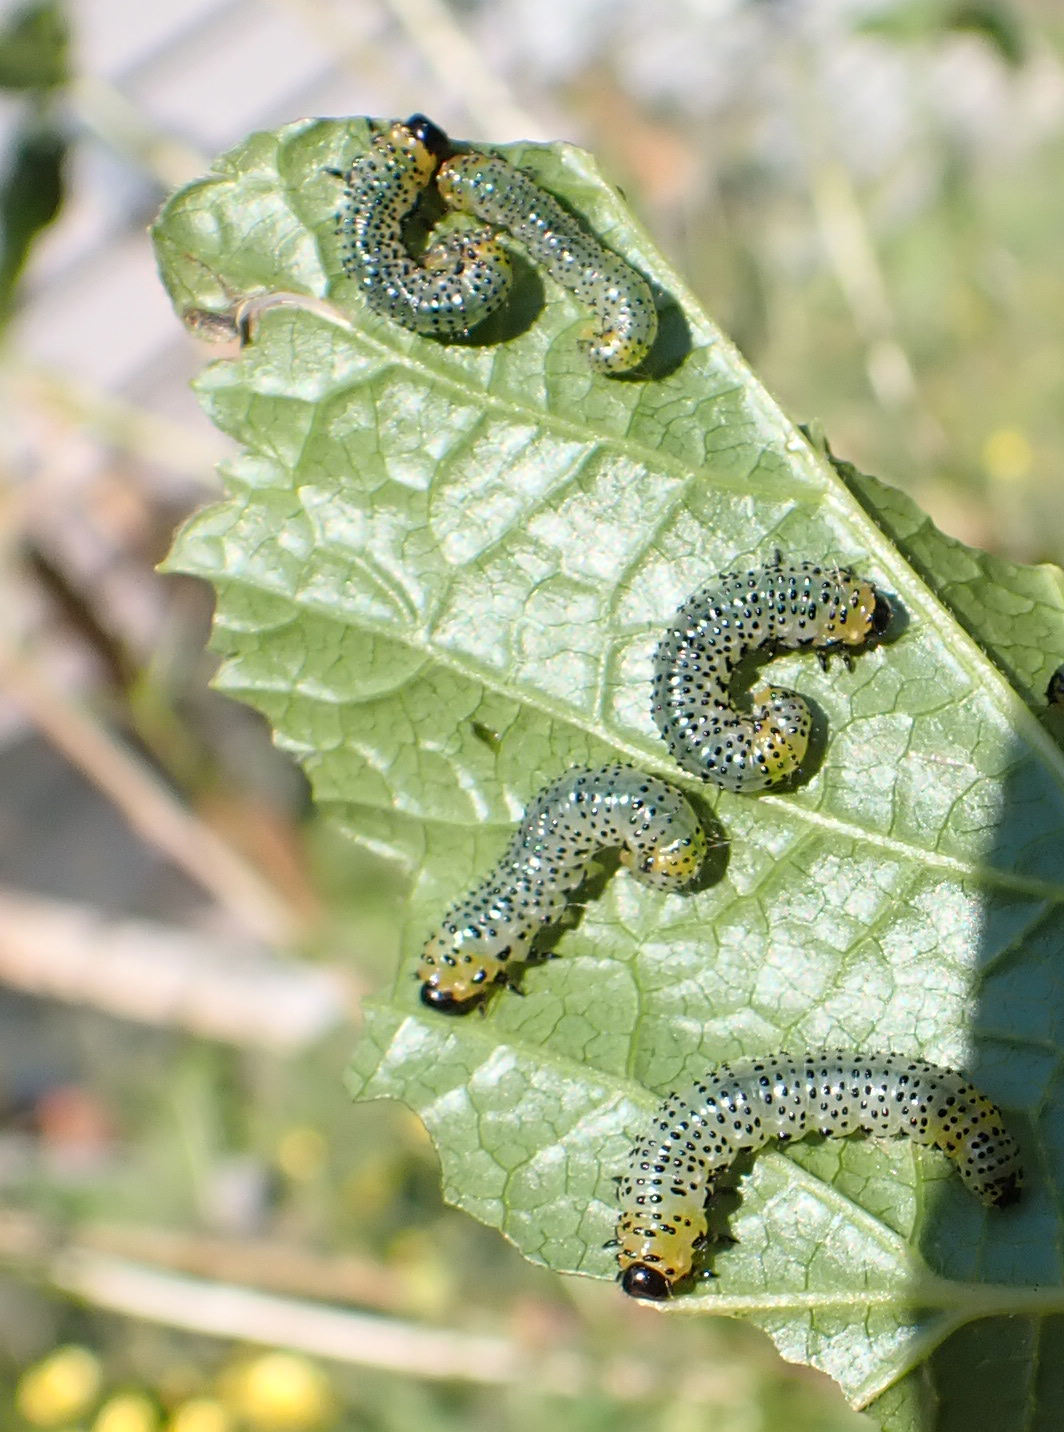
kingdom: Animalia
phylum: Arthropoda
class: Insecta
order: Hymenoptera
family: Tenthredinidae
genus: Nematus
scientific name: Nematus ribesii
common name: Imported currantworm
